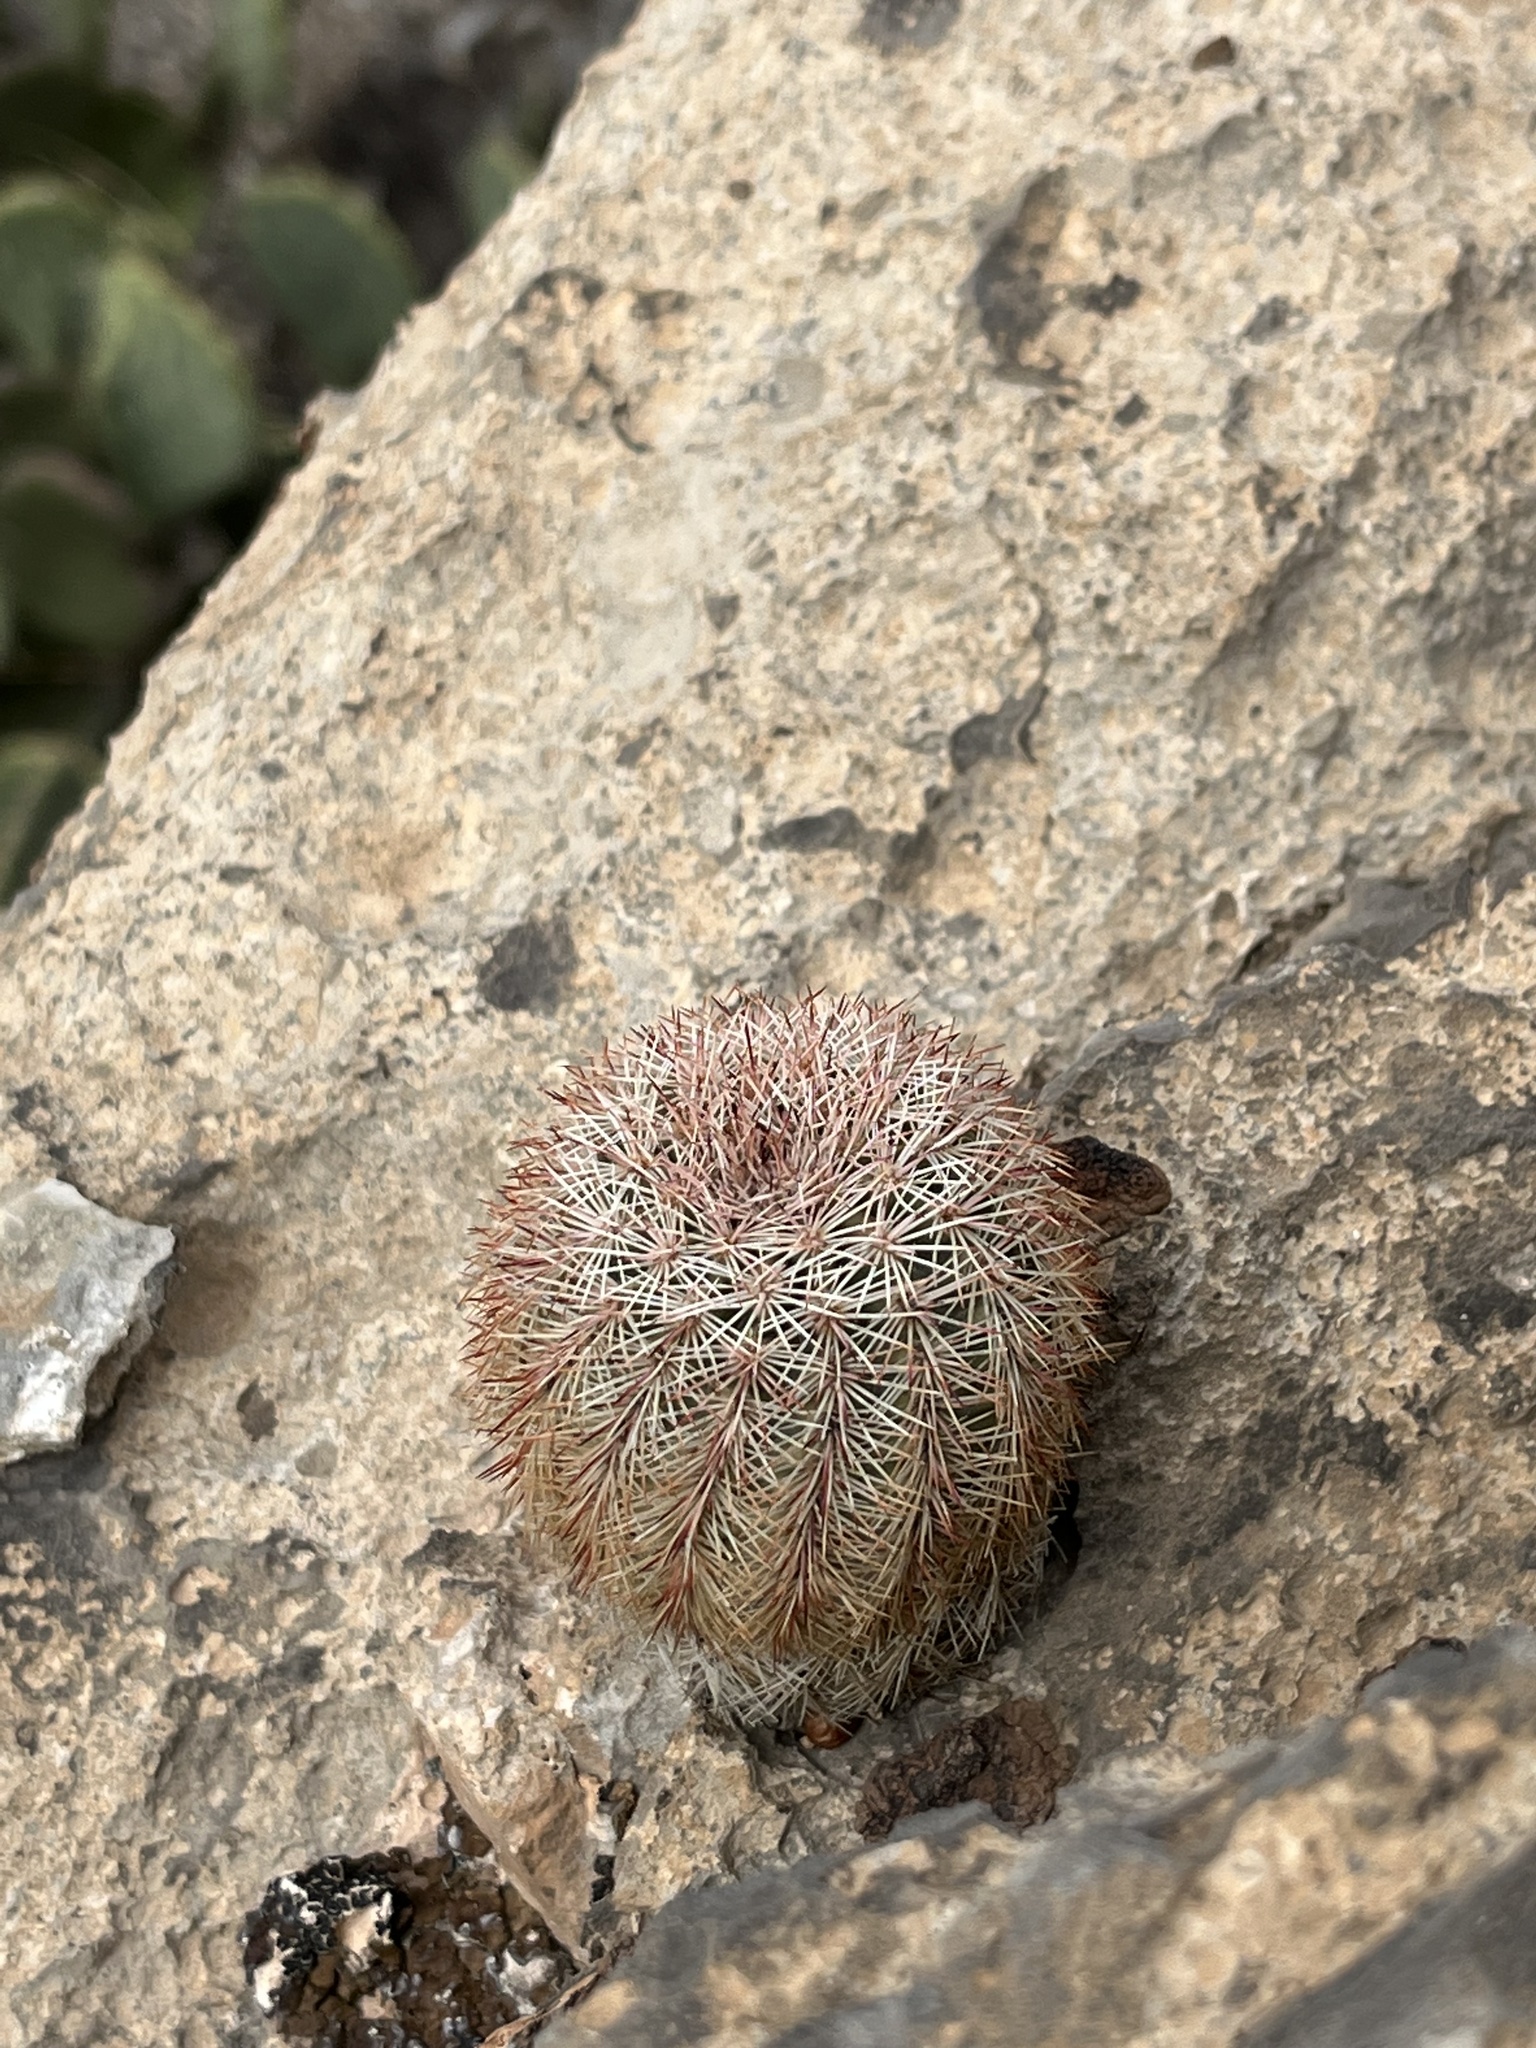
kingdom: Plantae
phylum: Tracheophyta
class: Magnoliopsida
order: Caryophyllales
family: Cactaceae
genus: Echinocereus
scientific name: Echinocereus dasyacanthus
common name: Spiny hedgehog cactus
